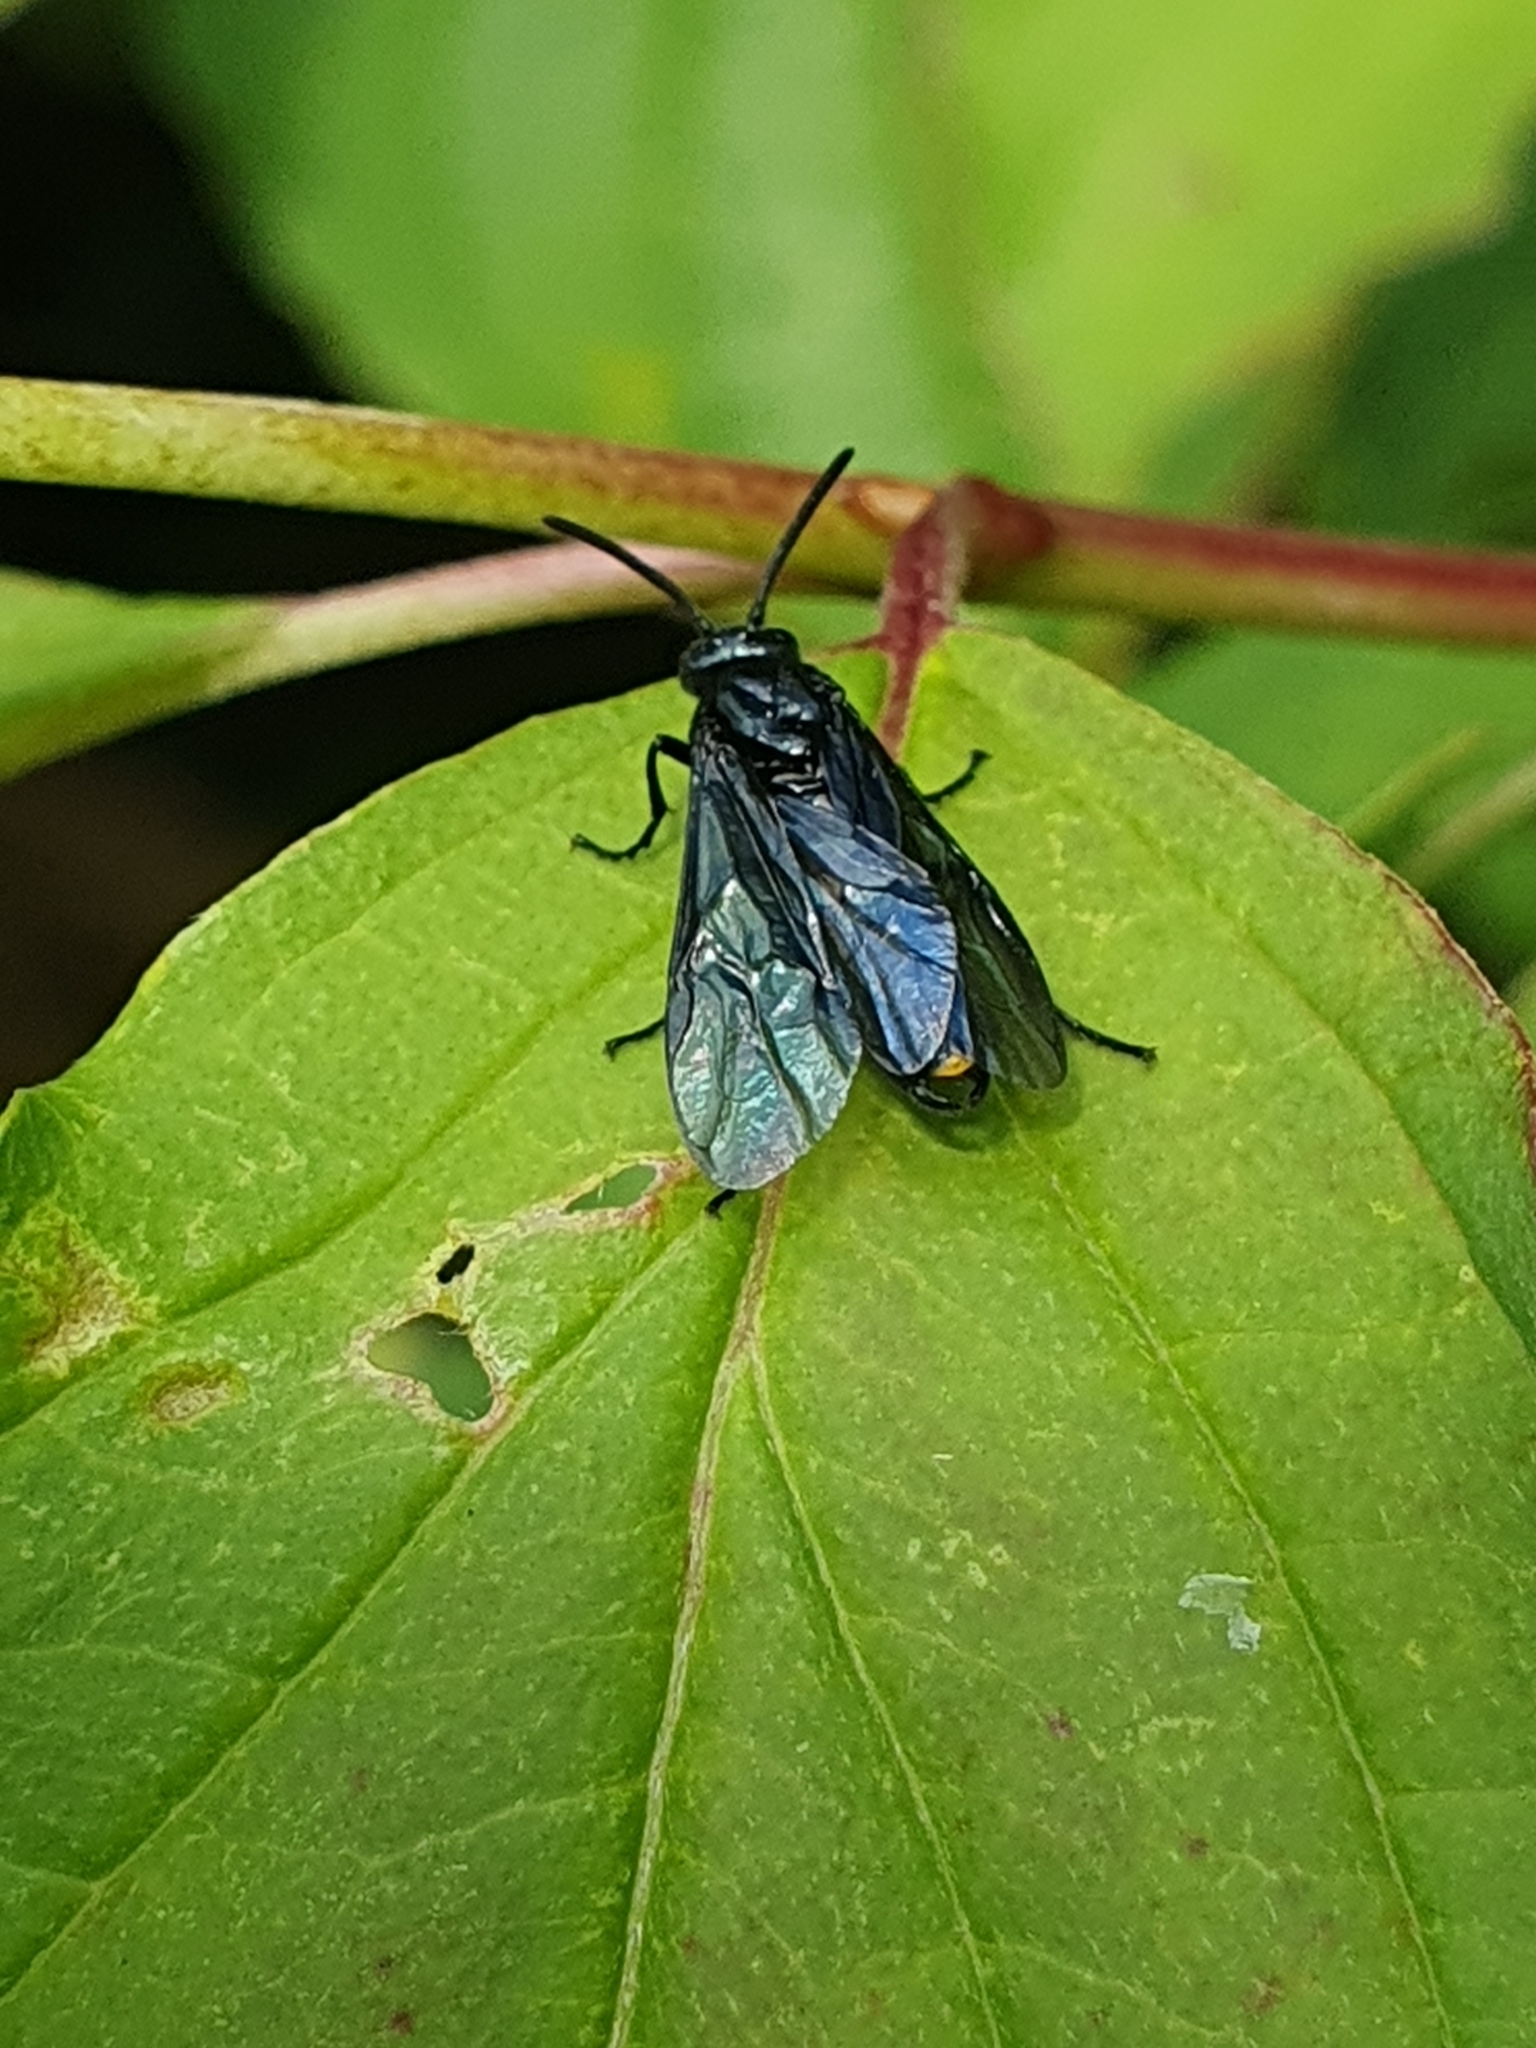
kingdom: Animalia
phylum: Arthropoda
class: Insecta
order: Hymenoptera
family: Argidae
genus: Arge
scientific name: Arge berberidis
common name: Berberis sawfly
